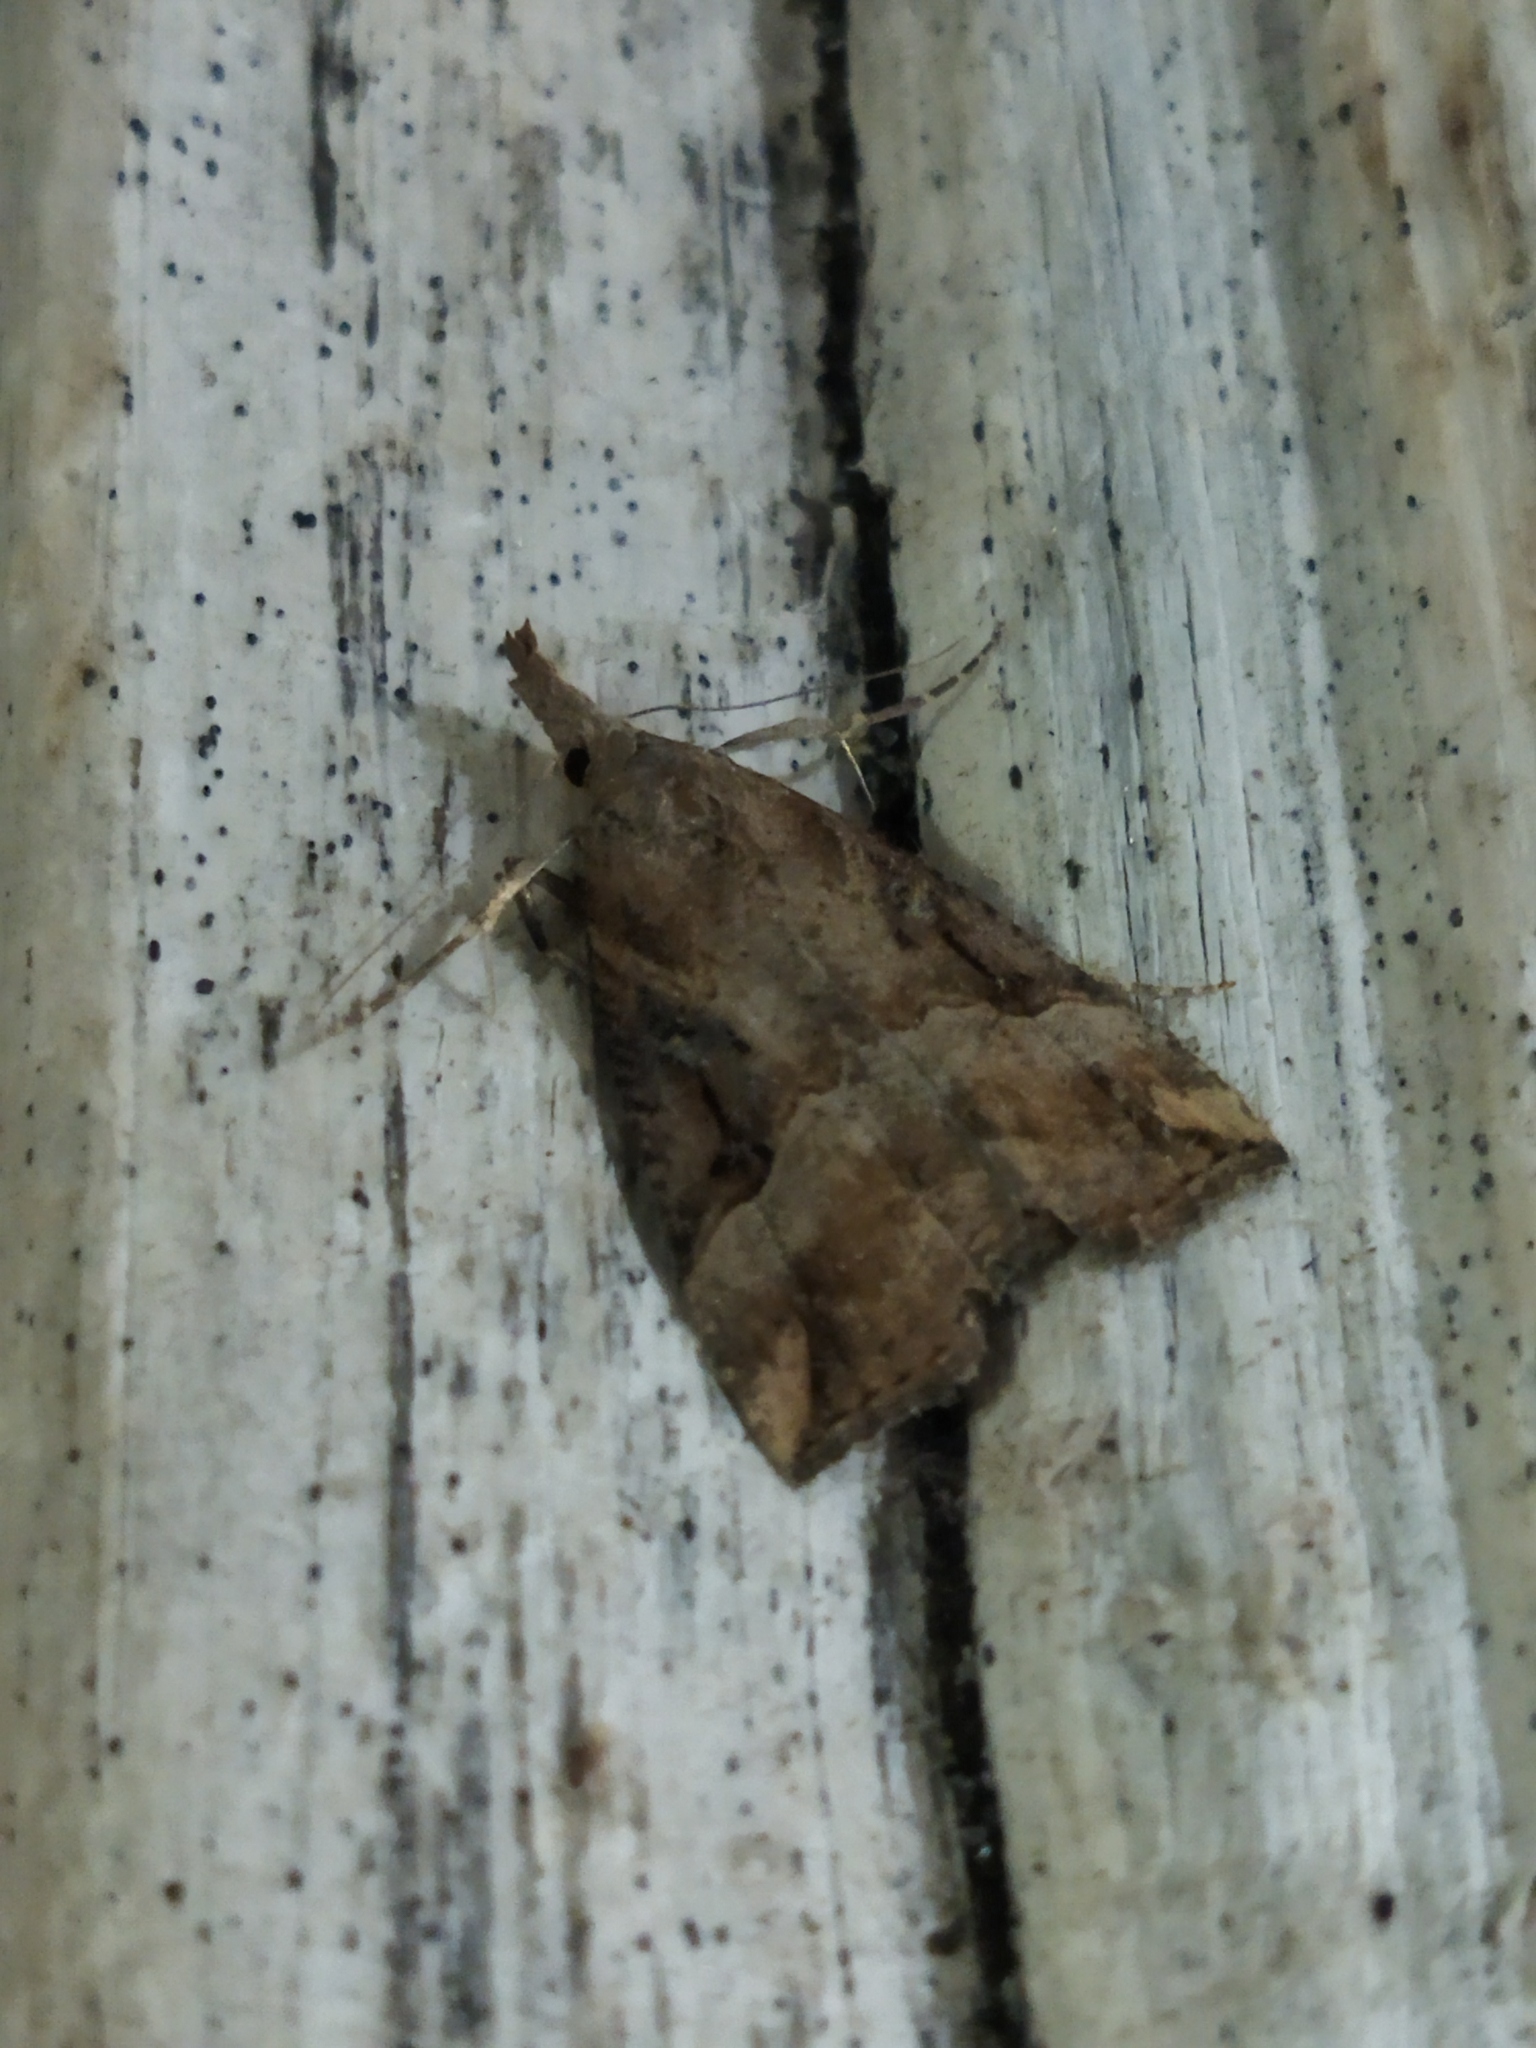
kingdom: Animalia
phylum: Arthropoda
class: Insecta
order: Lepidoptera
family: Erebidae
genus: Hypena
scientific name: Hypena rostralis
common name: Buttoned snout
